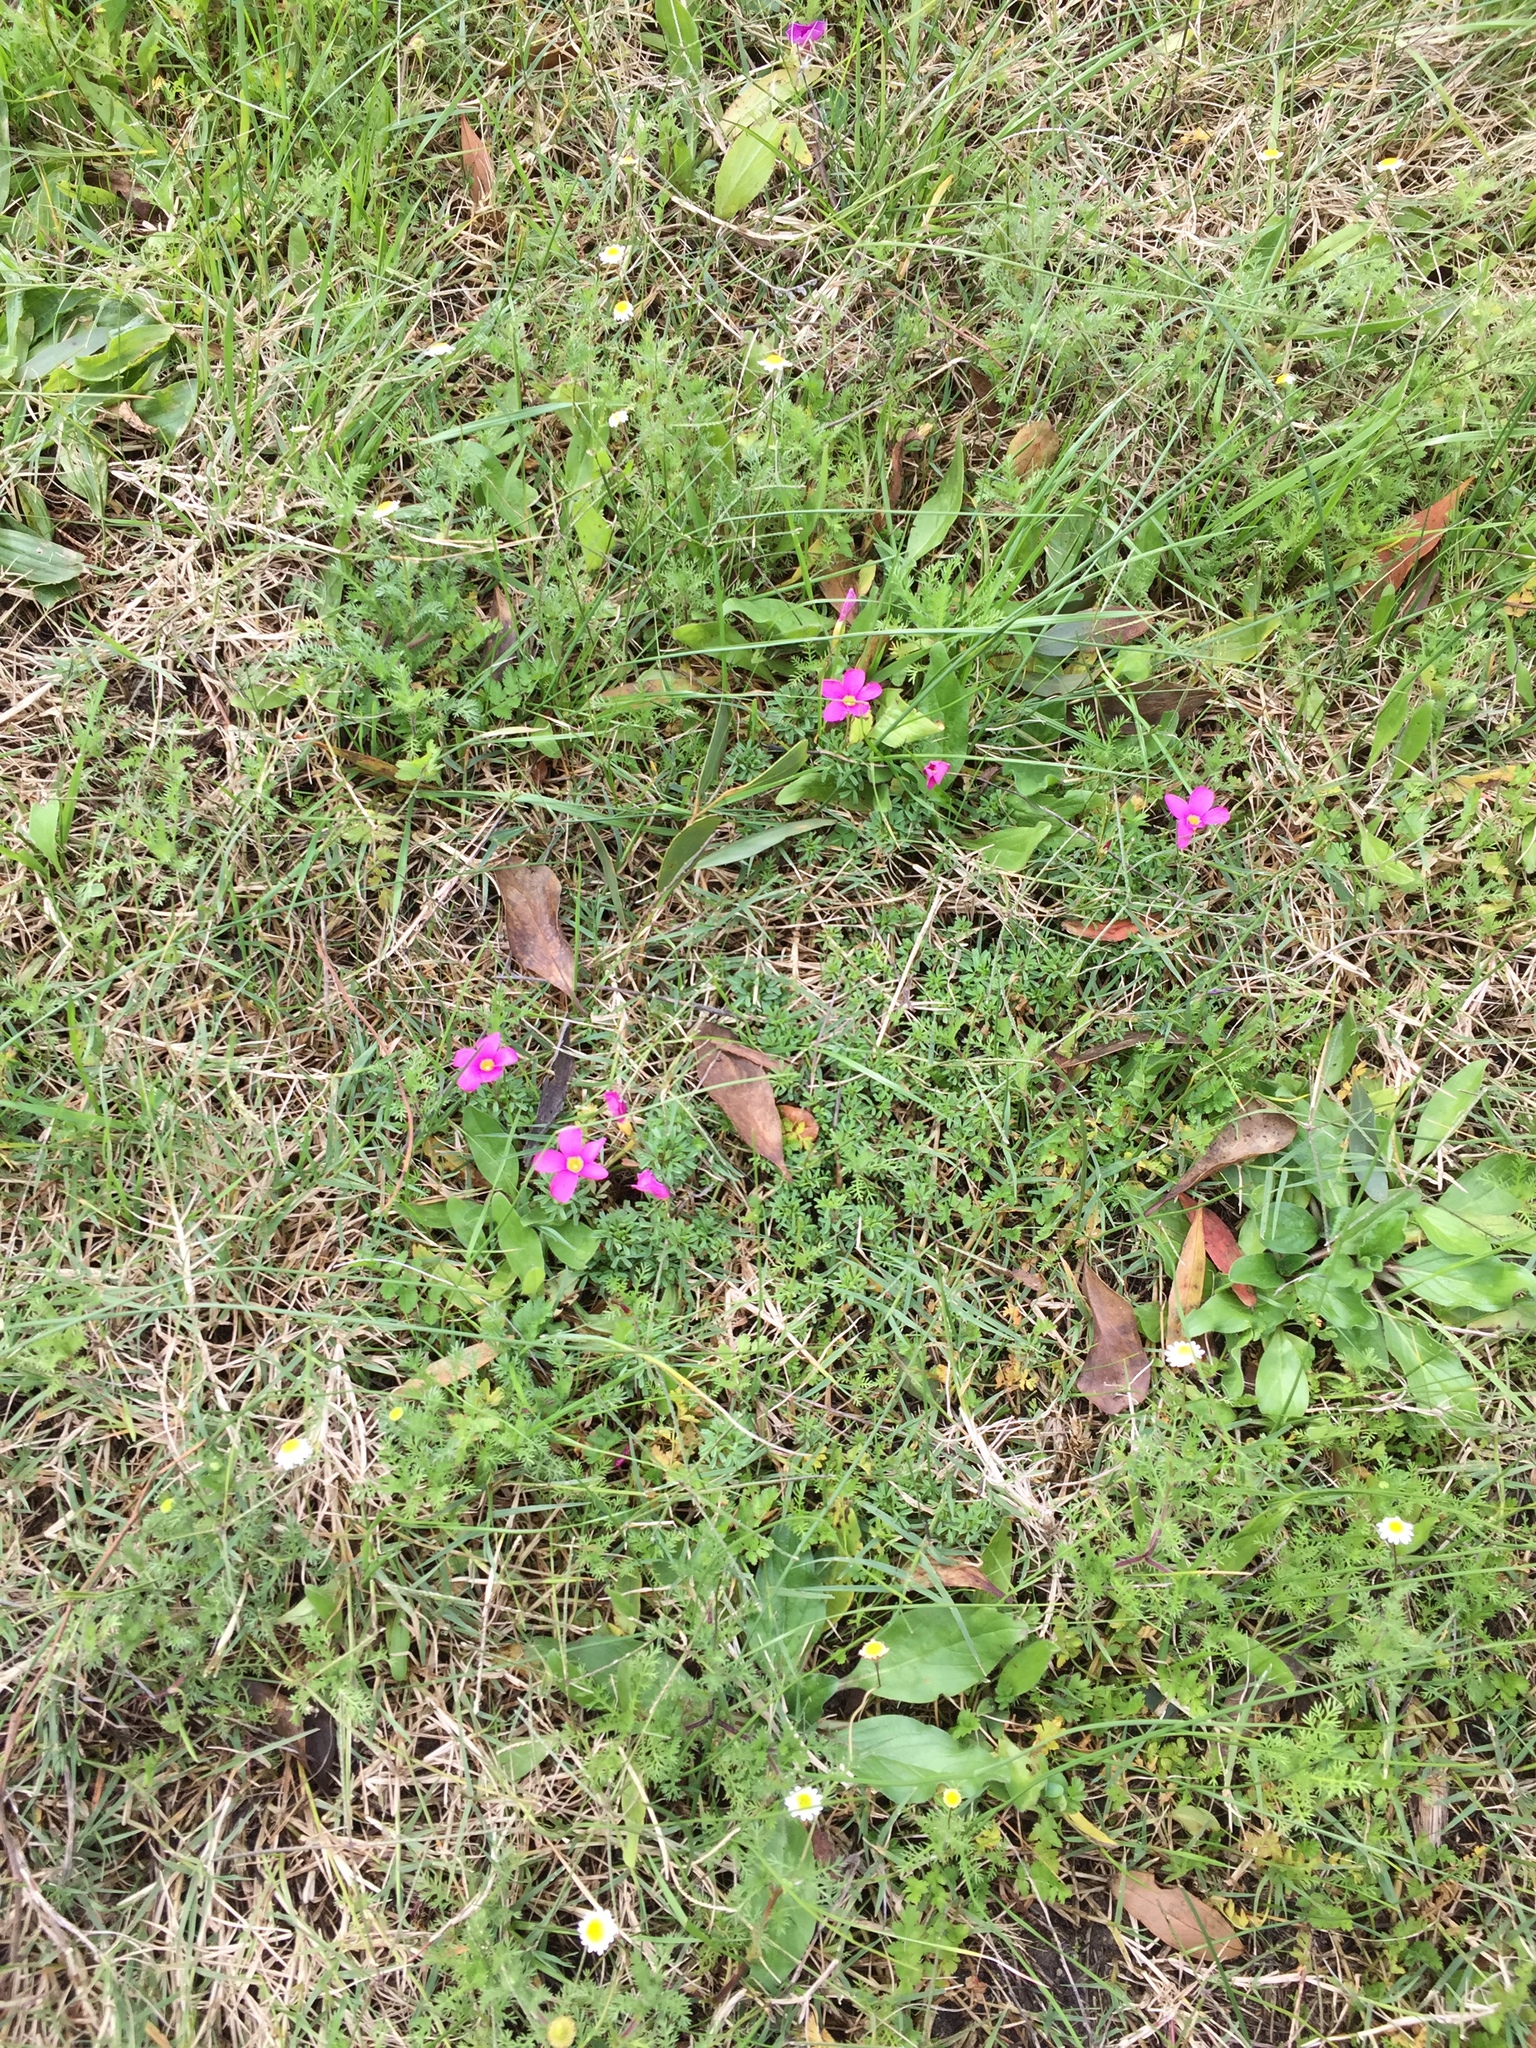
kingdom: Plantae
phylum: Tracheophyta
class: Magnoliopsida
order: Oxalidales
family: Oxalidaceae
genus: Oxalis
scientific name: Oxalis glabra
